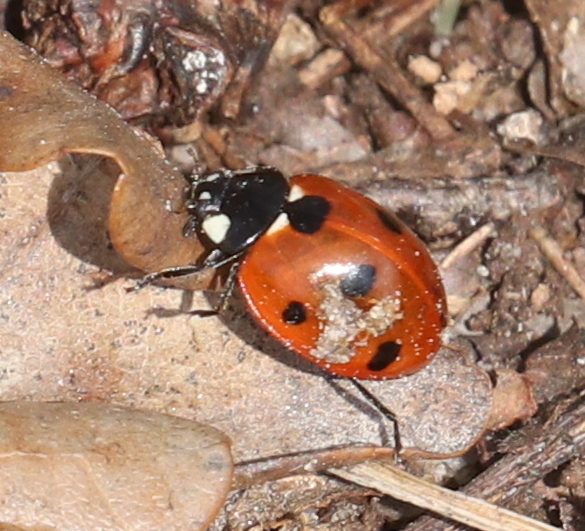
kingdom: Animalia
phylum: Arthropoda
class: Insecta
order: Coleoptera
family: Coccinellidae
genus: Coccinella
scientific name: Coccinella septempunctata
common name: Sevenspotted lady beetle
